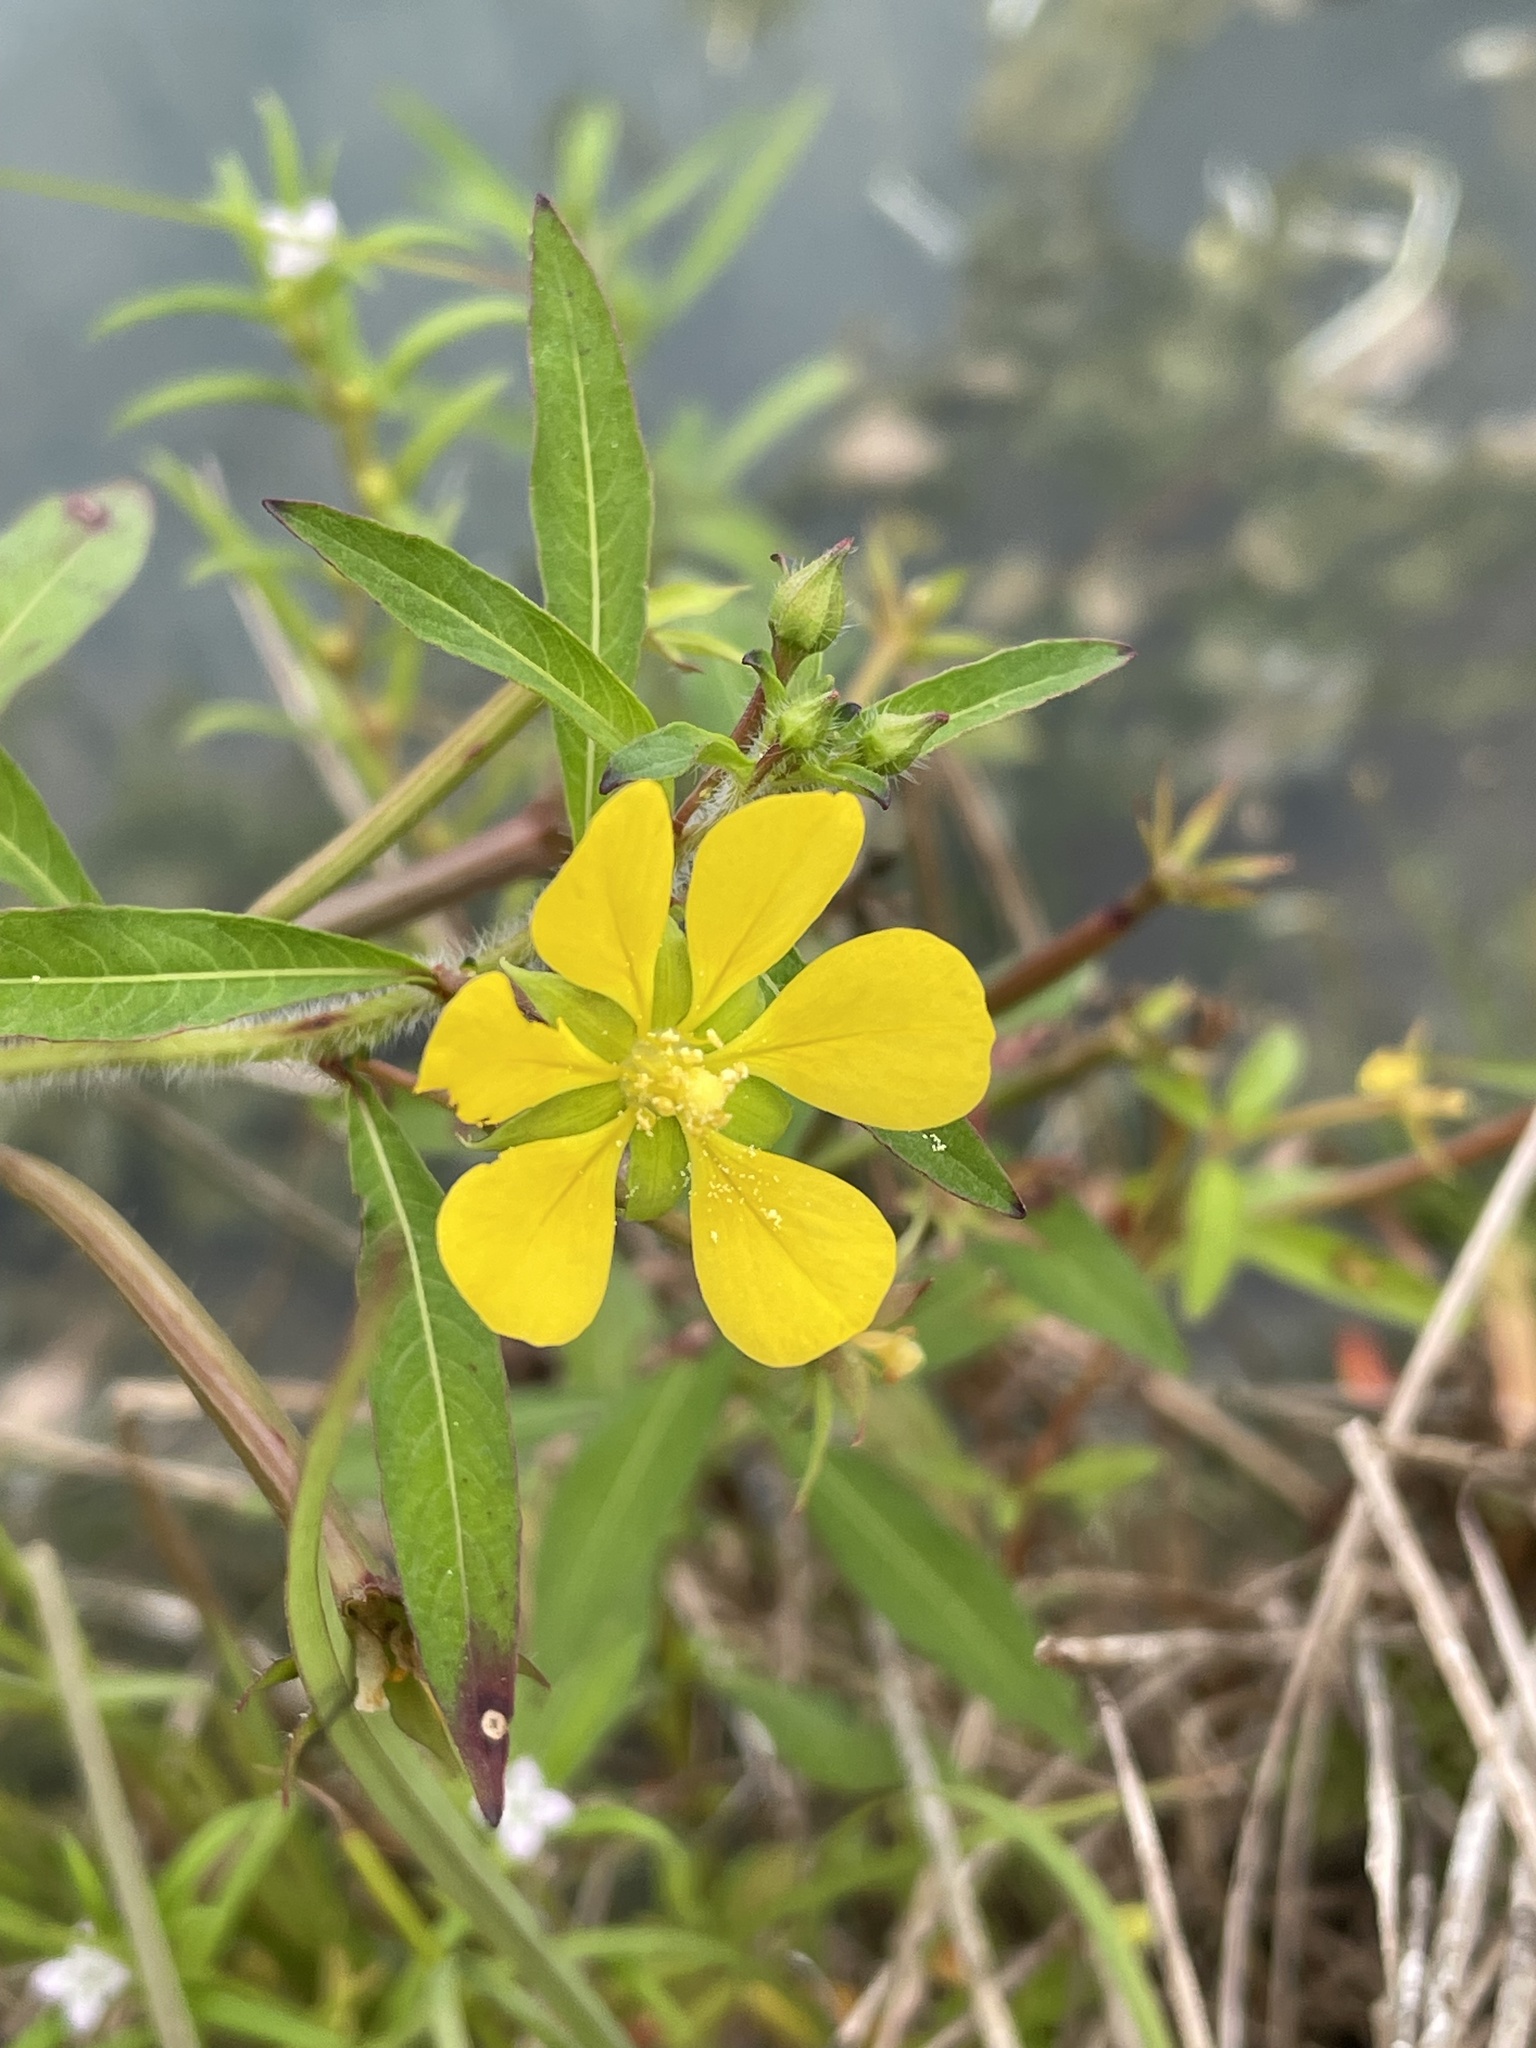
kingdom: Plantae
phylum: Tracheophyta
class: Magnoliopsida
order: Myrtales
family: Onagraceae
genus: Ludwigia
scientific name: Ludwigia leptocarpa
